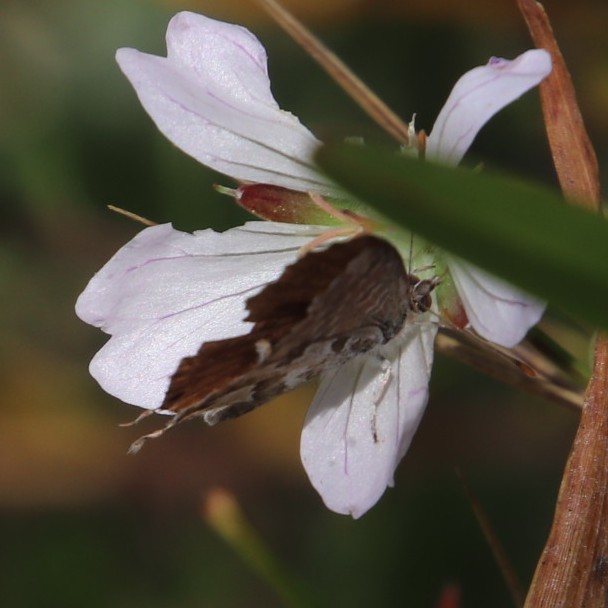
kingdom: Animalia
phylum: Arthropoda
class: Insecta
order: Lepidoptera
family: Lycaenidae
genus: Cacyreus
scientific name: Cacyreus fracta
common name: Water bronze
